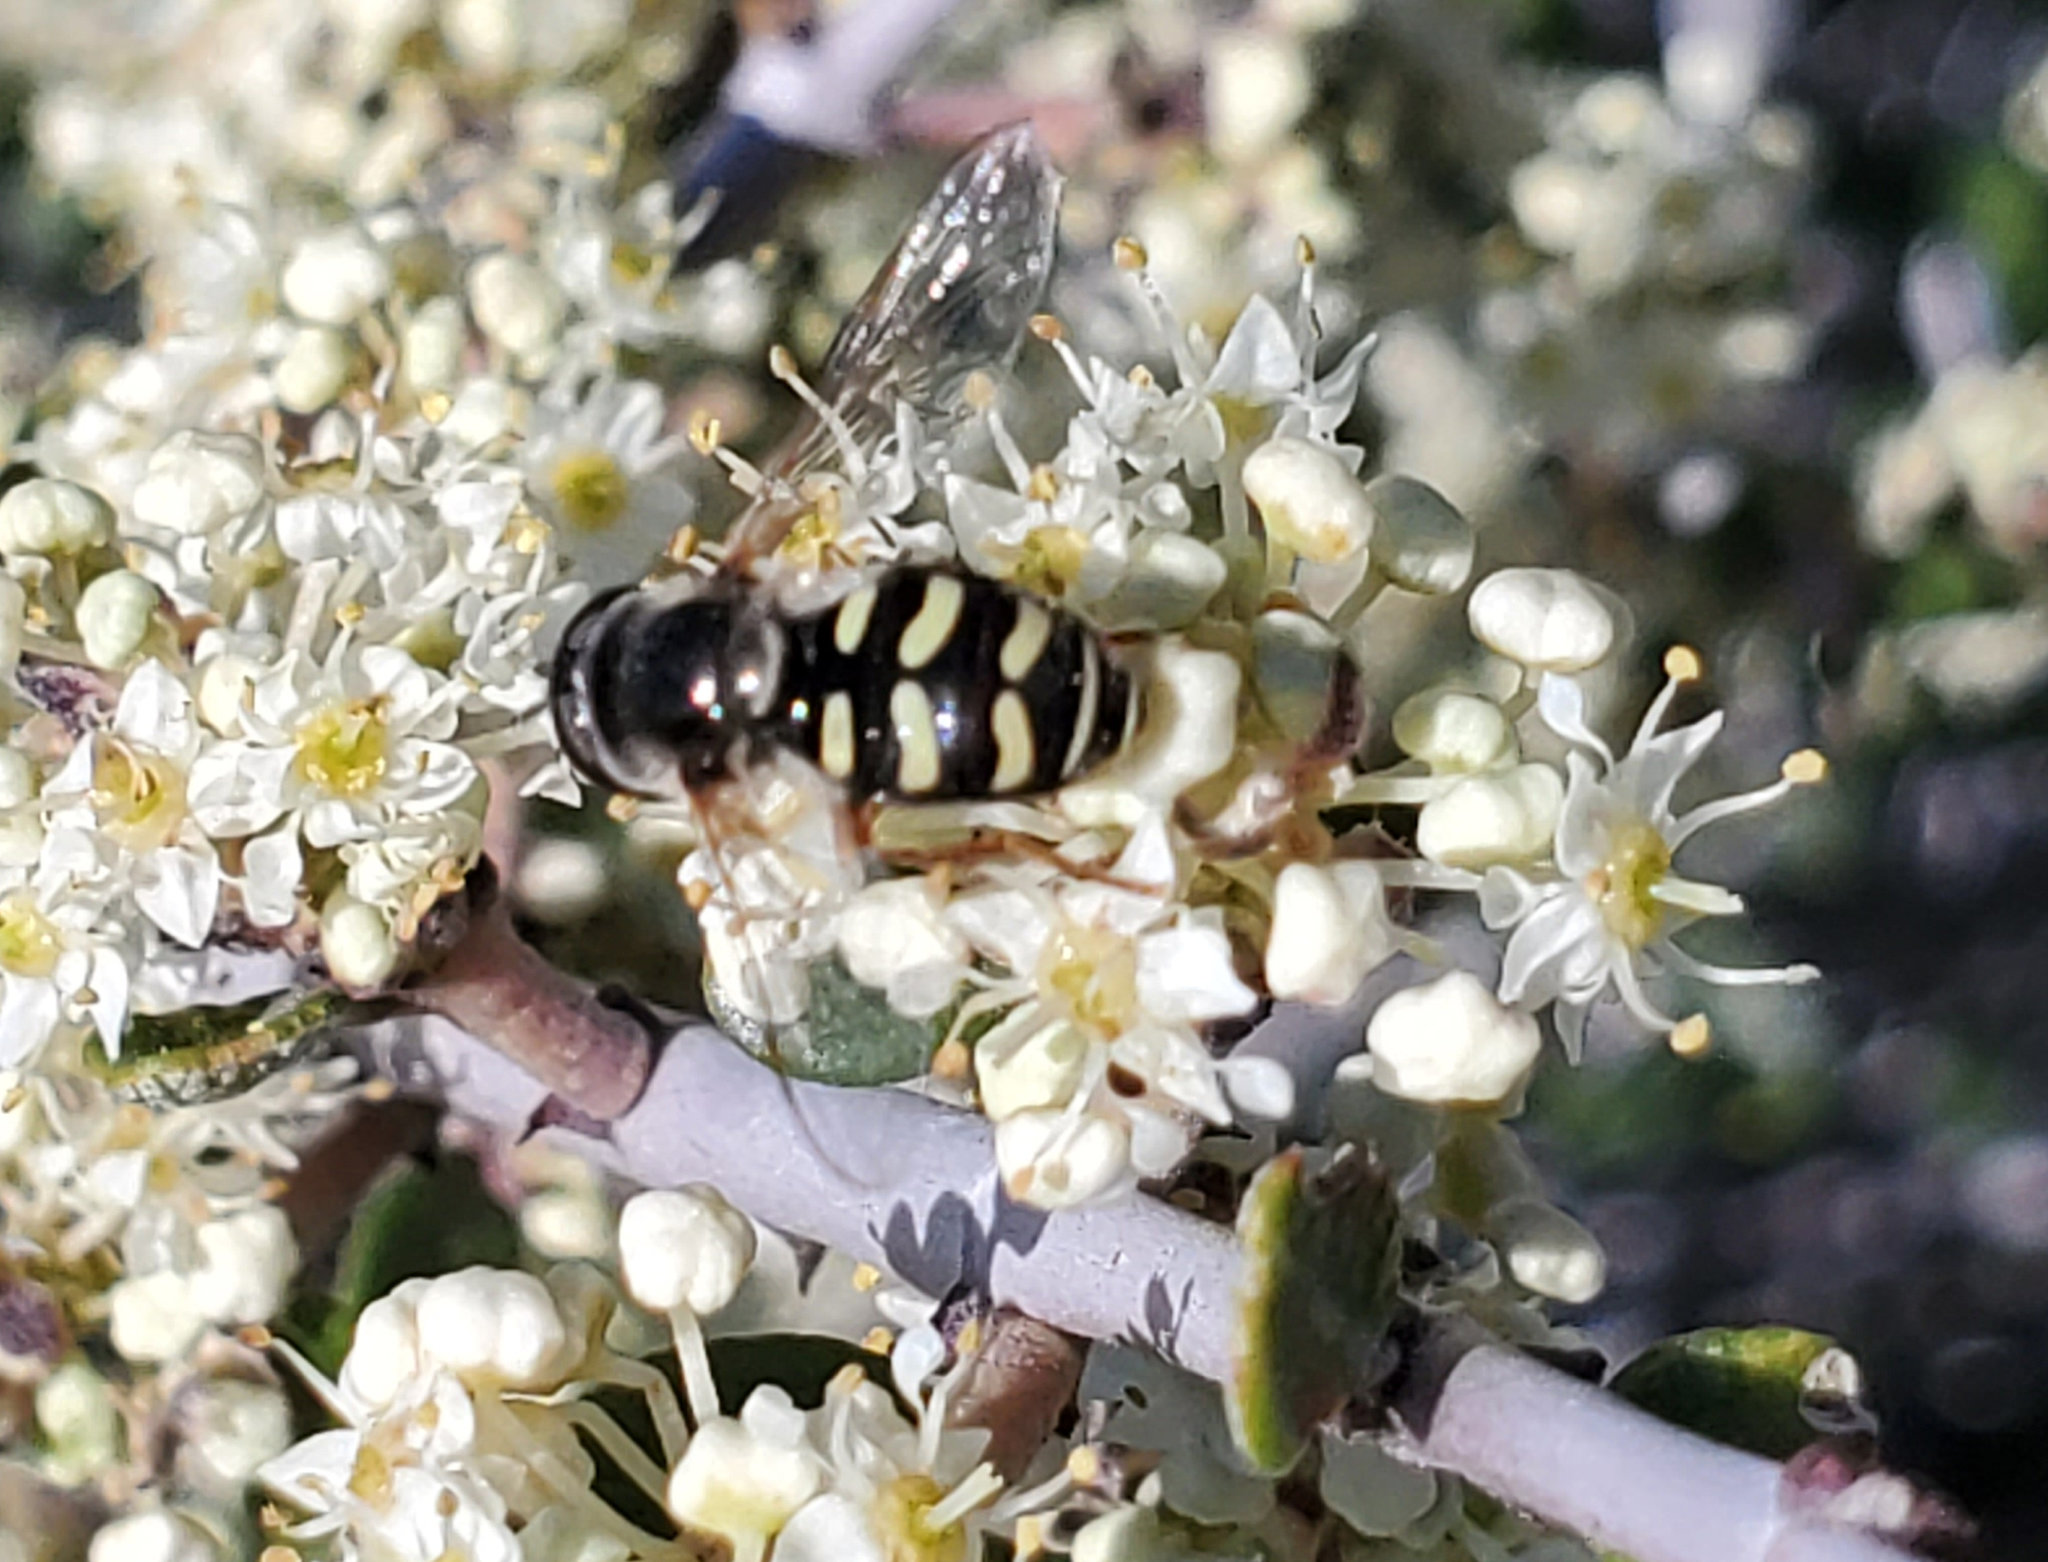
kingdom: Animalia
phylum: Arthropoda
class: Insecta
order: Diptera
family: Syrphidae
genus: Eupeodes
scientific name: Eupeodes volucris
